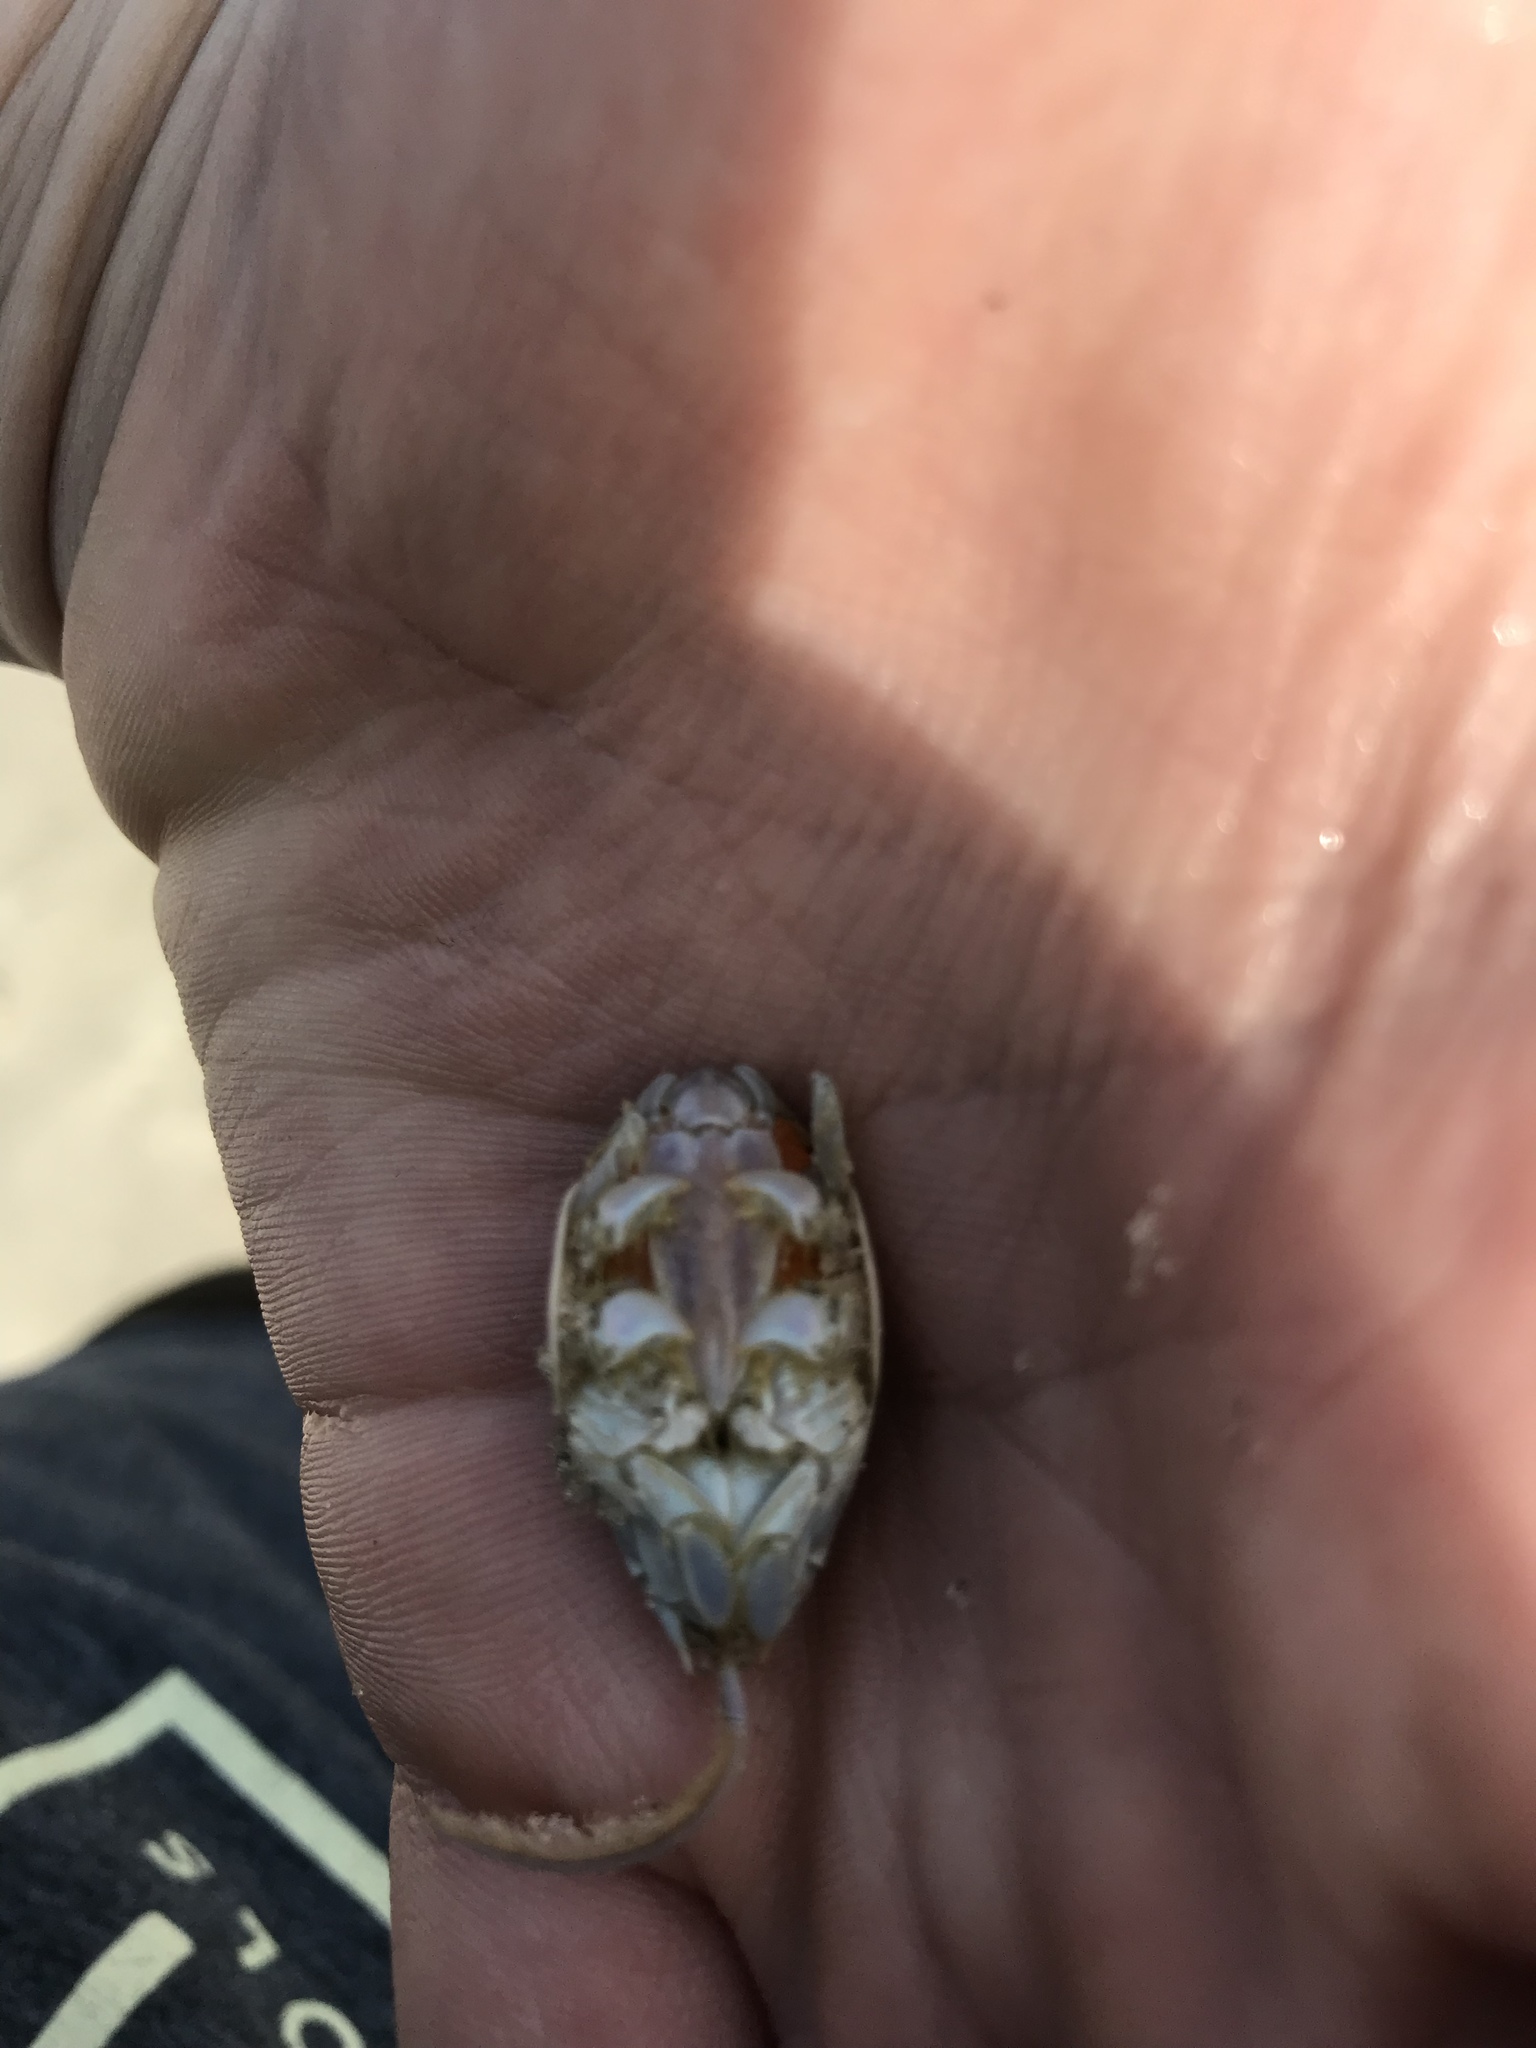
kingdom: Animalia
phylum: Arthropoda
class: Malacostraca
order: Decapoda
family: Hippidae
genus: Emerita
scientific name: Emerita talpoida
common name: Atlantic sand crab
